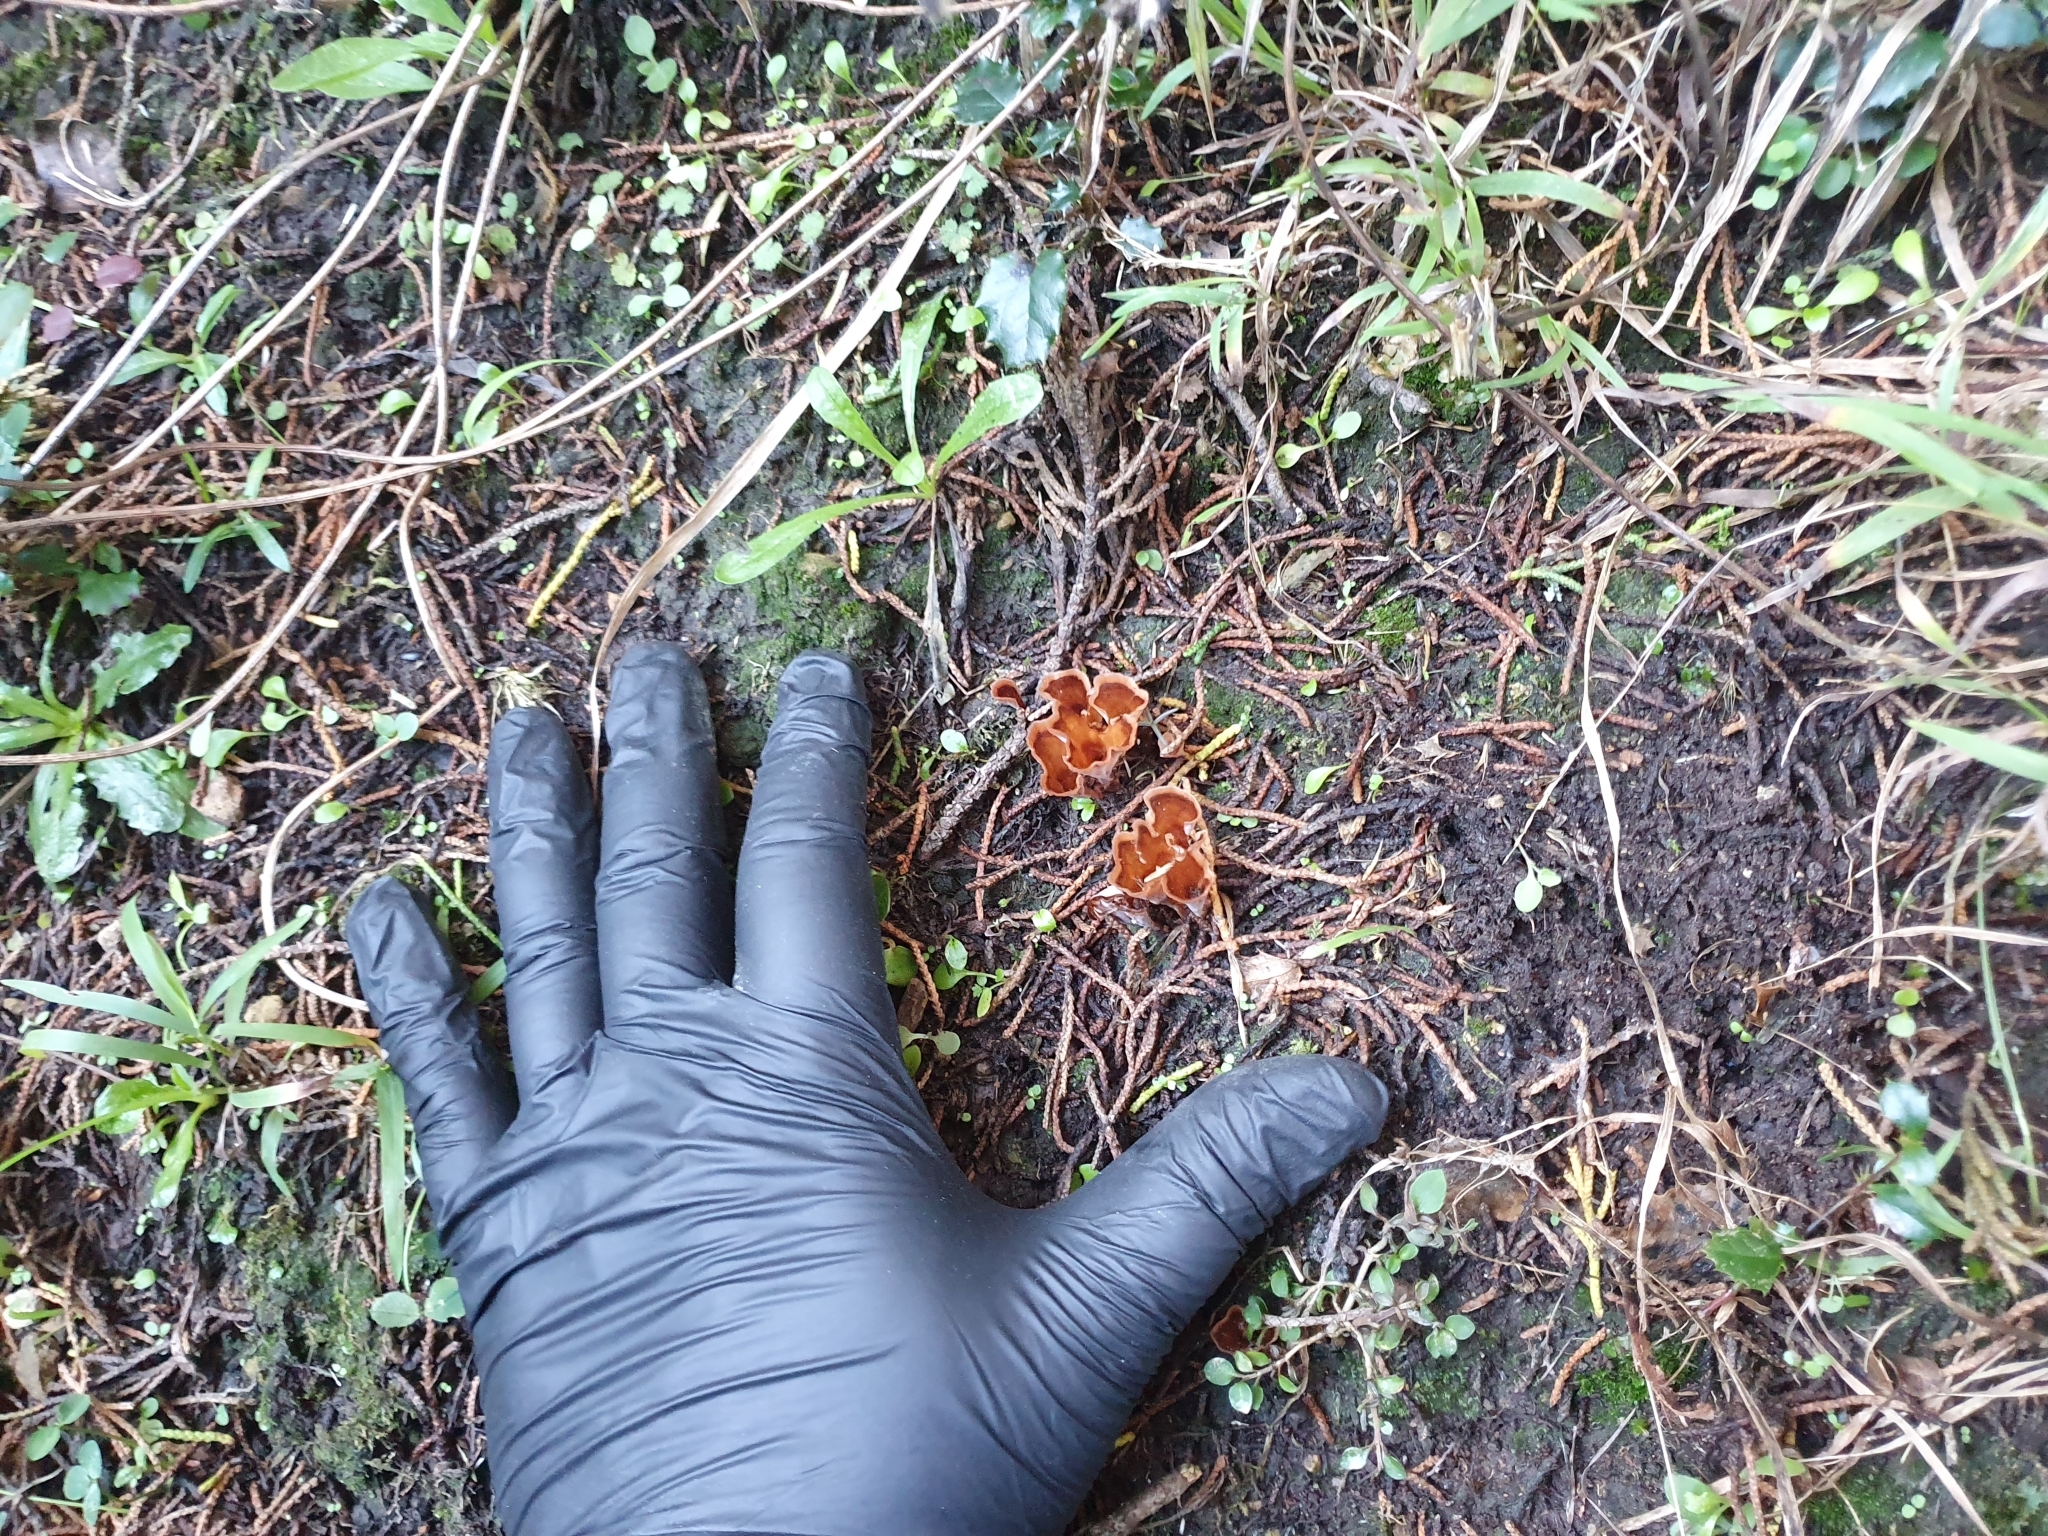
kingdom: Fungi
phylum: Basidiomycota
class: Agaricomycetes
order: Polyporales
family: Podoscyphaceae
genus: Podoscypha
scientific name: Podoscypha petalodes
